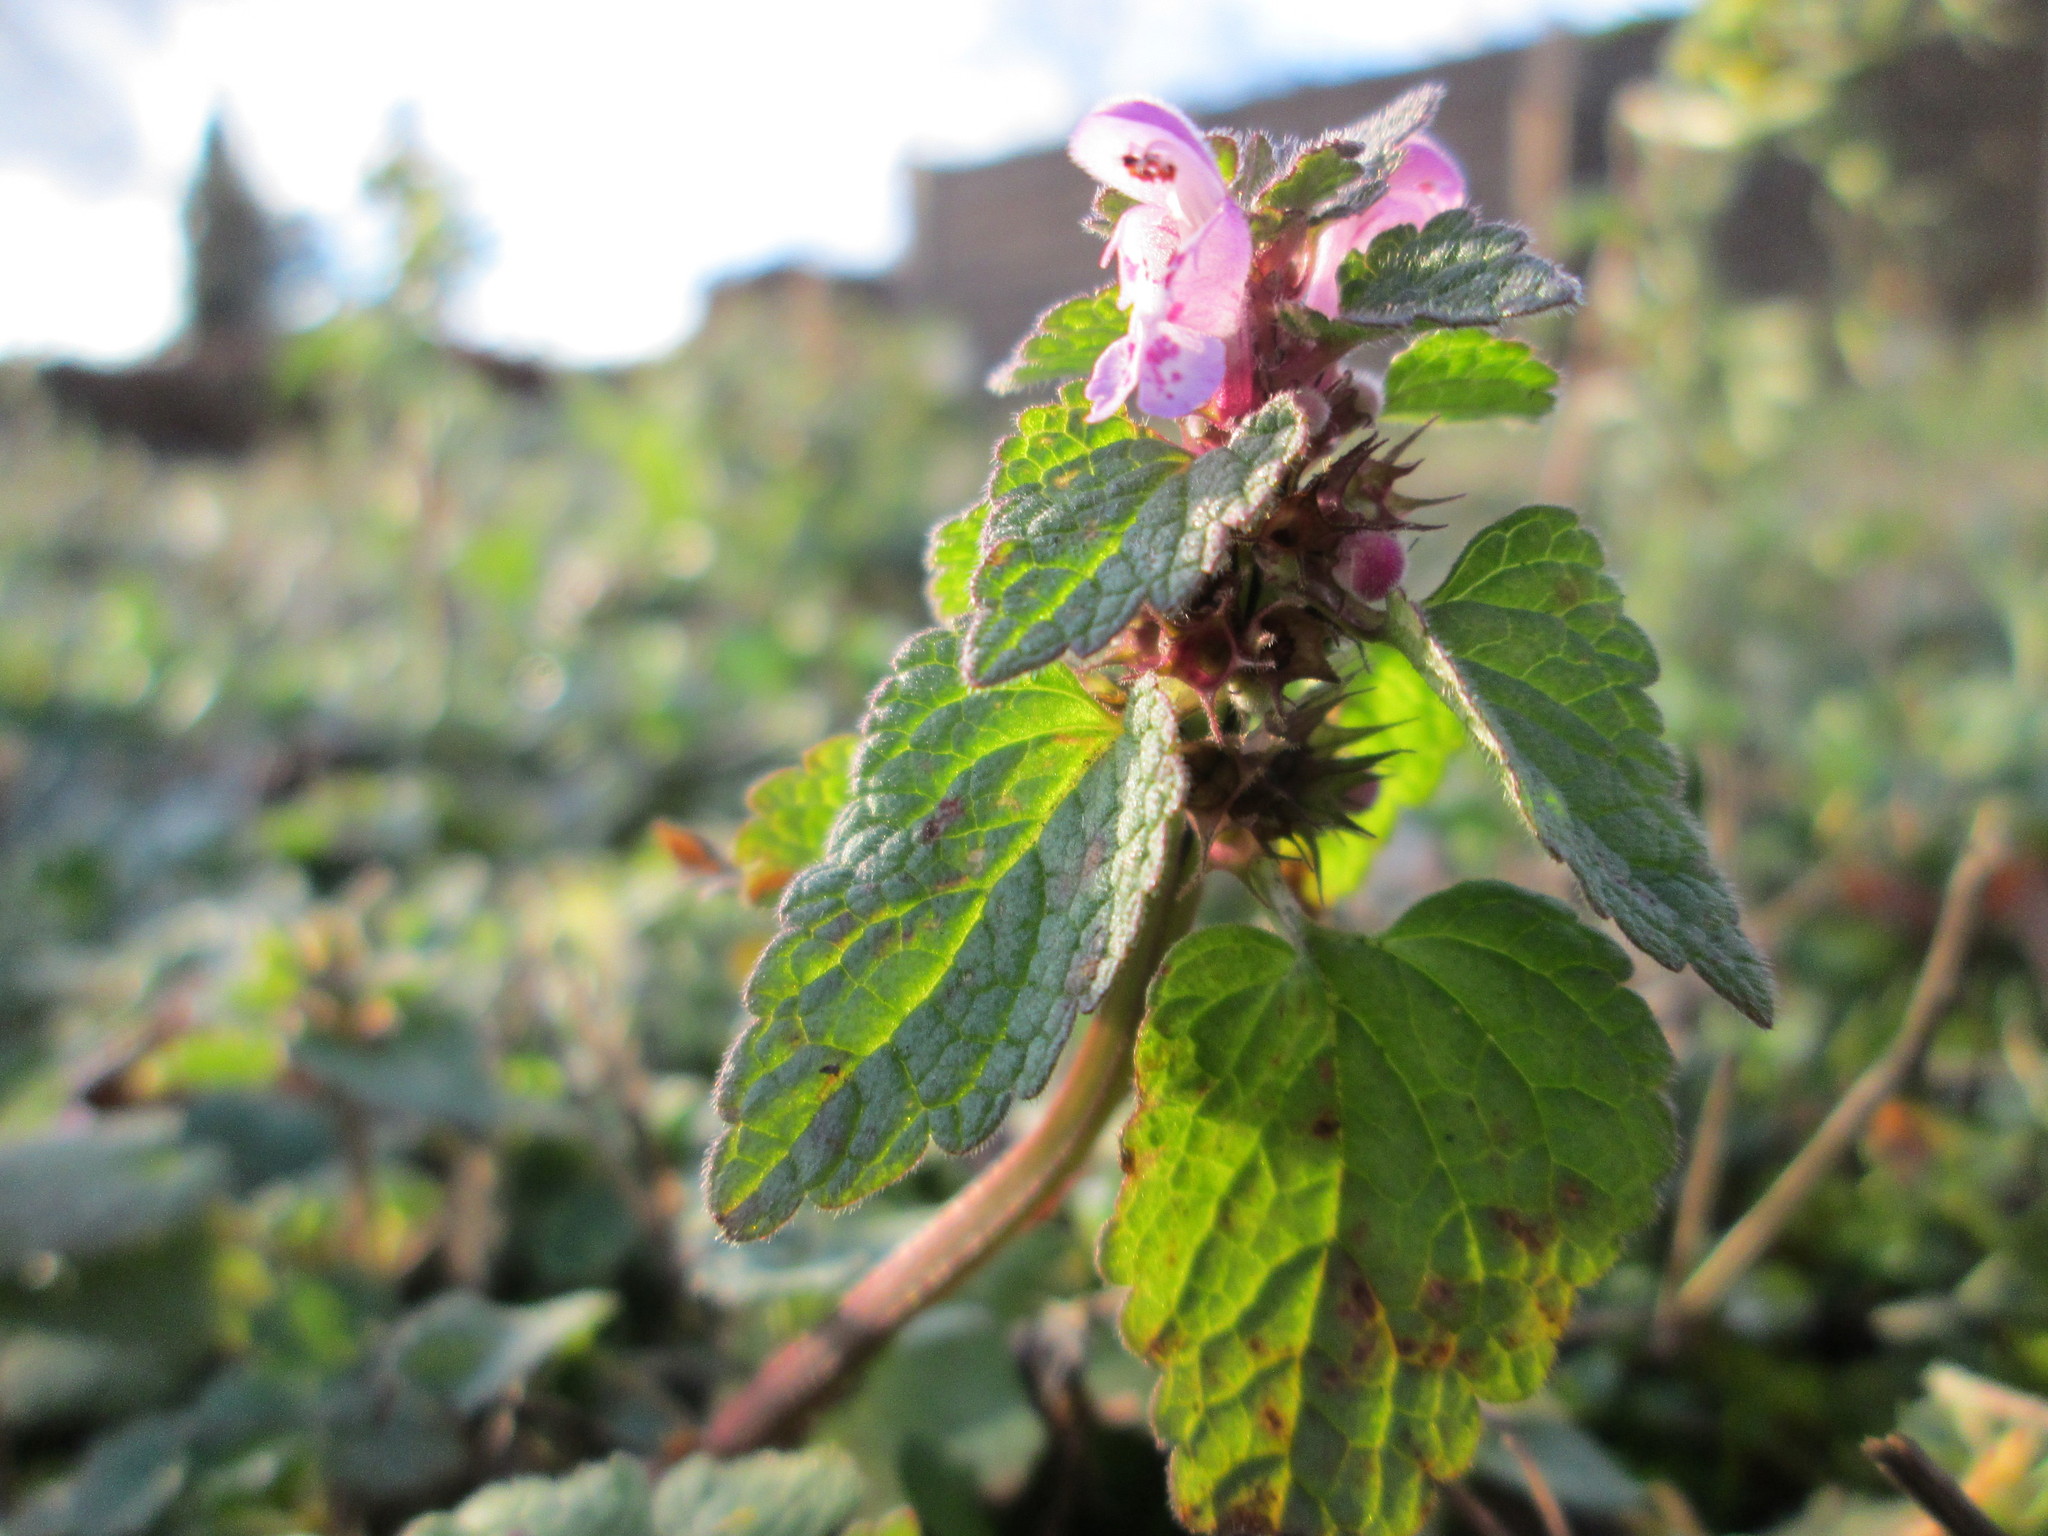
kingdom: Plantae
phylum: Tracheophyta
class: Magnoliopsida
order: Lamiales
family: Lamiaceae
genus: Lamium
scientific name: Lamium purpureum
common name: Red dead-nettle
